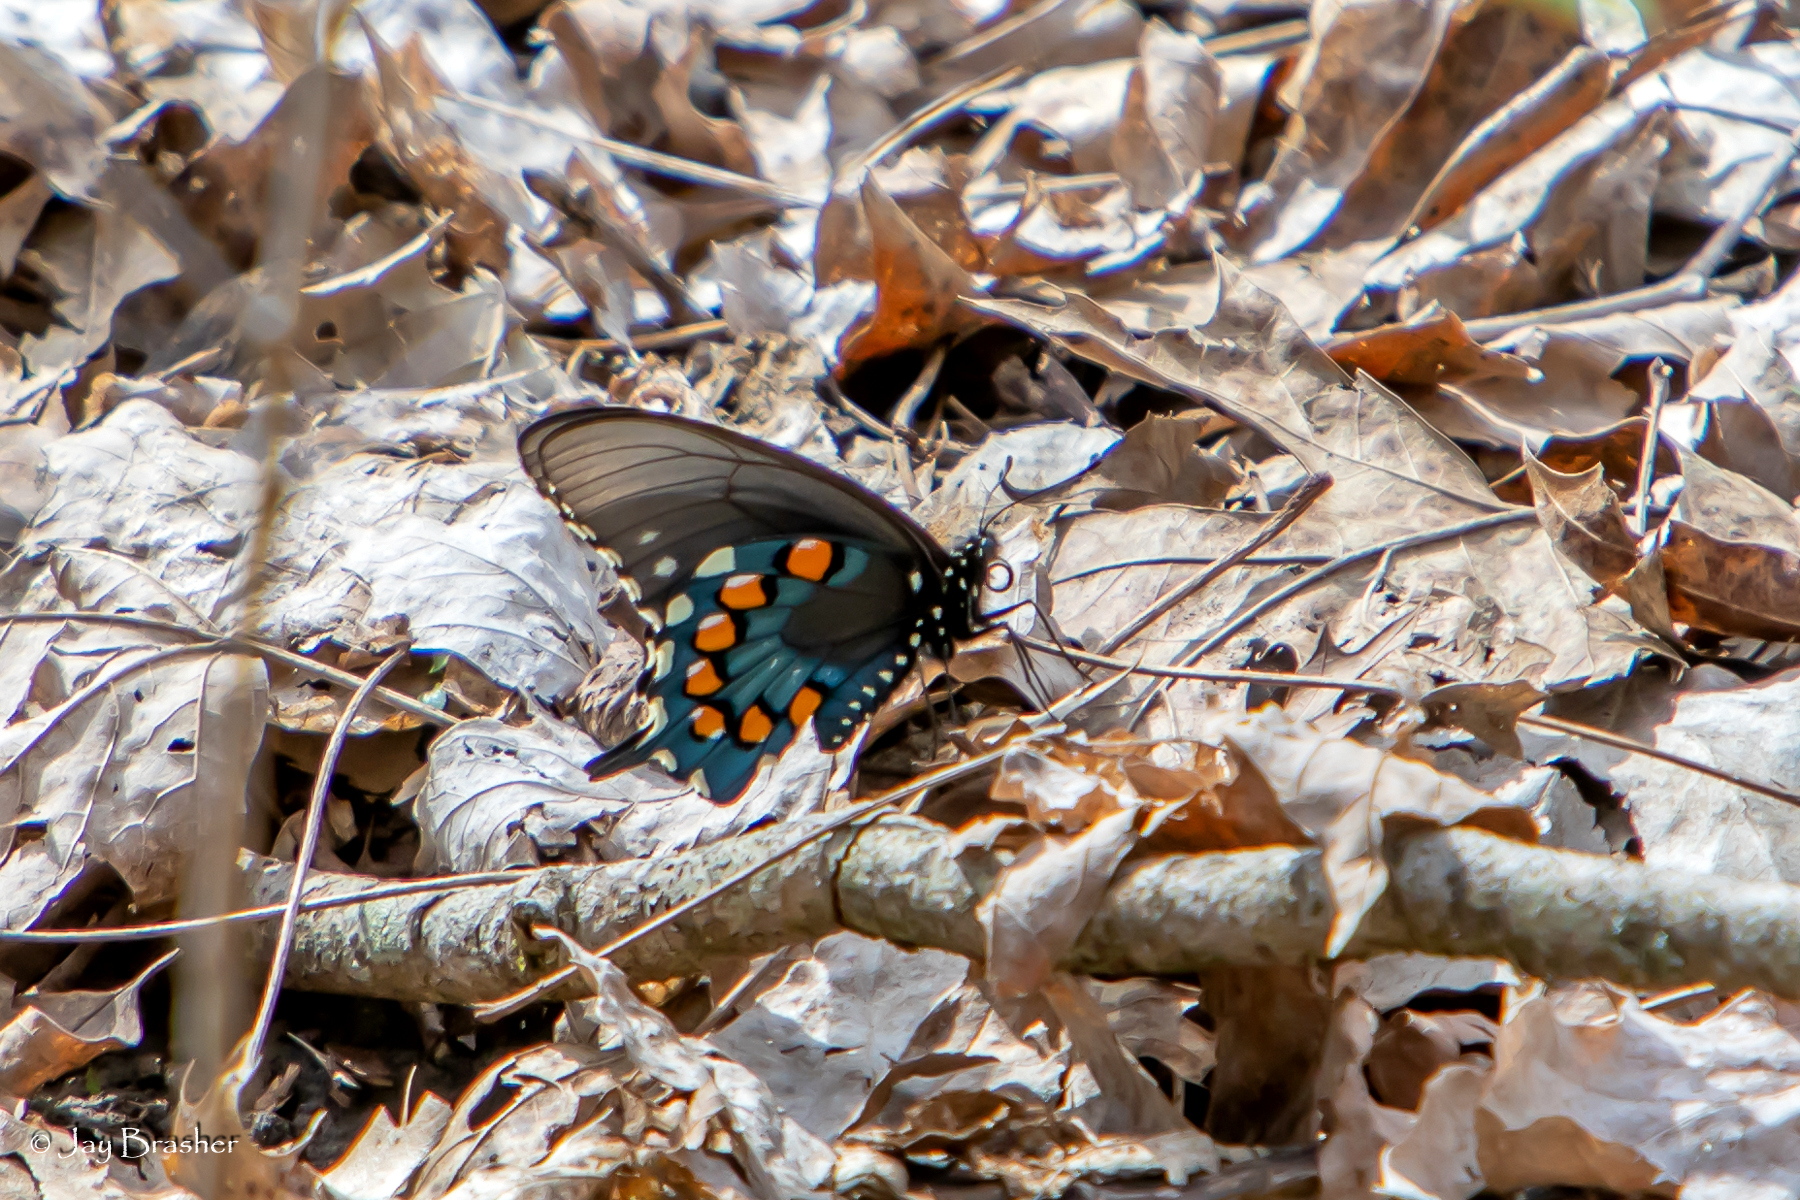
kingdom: Animalia
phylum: Arthropoda
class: Insecta
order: Lepidoptera
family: Papilionidae
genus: Battus
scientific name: Battus philenor
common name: Pipevine swallowtail
